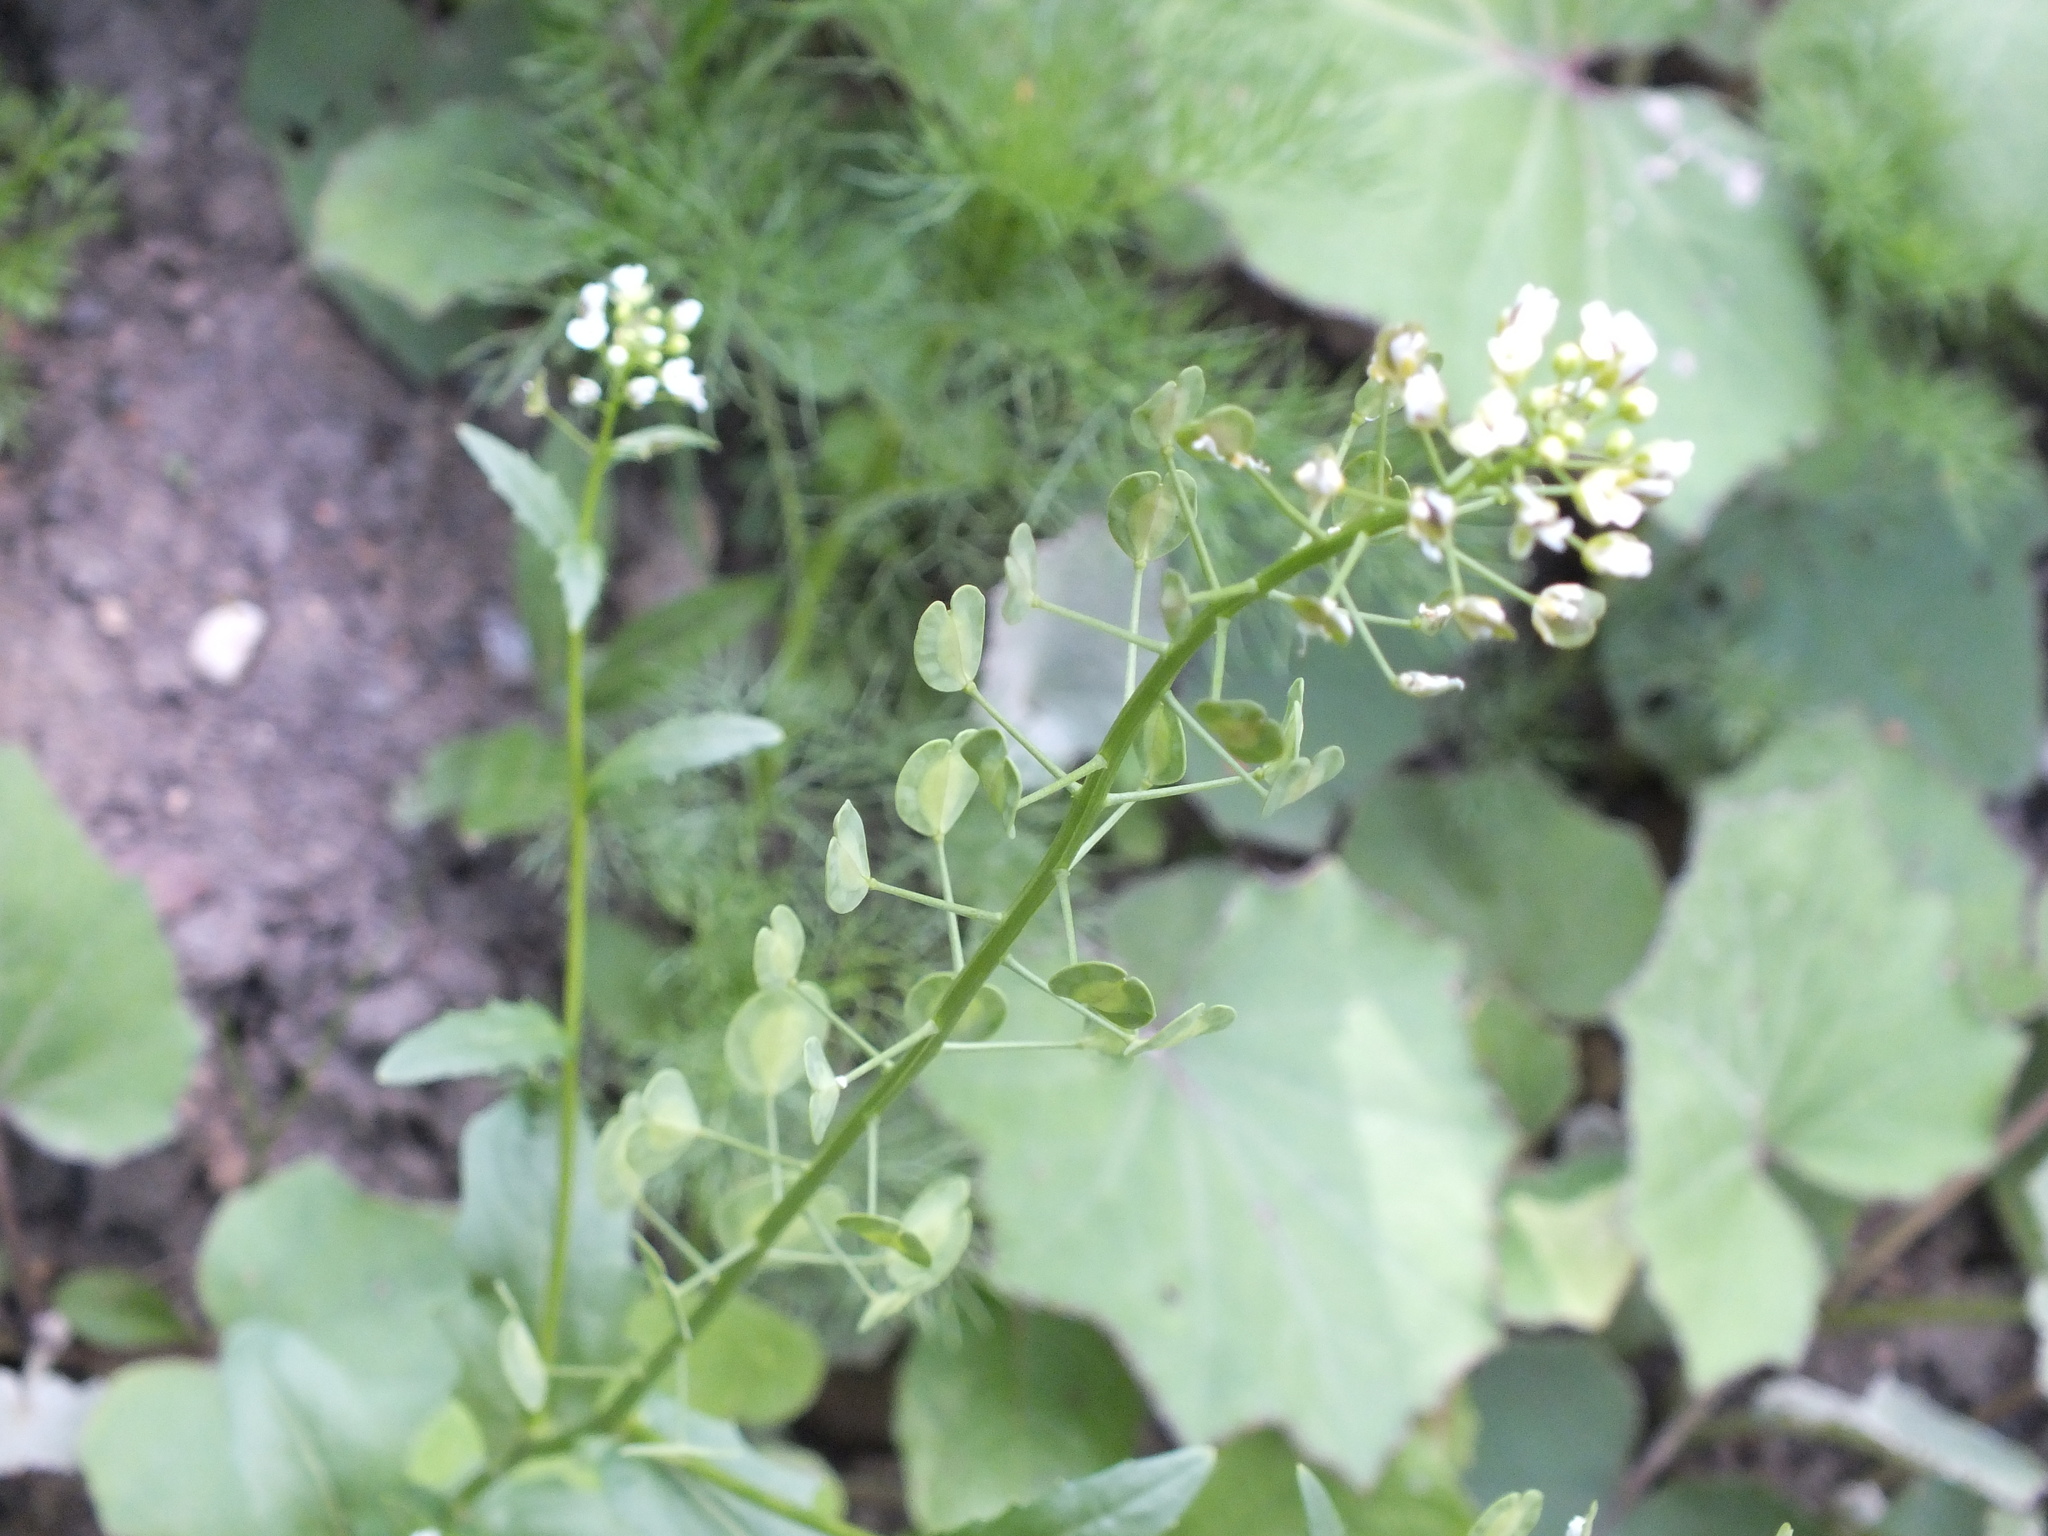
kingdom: Plantae
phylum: Tracheophyta
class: Magnoliopsida
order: Brassicales
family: Brassicaceae
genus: Thlaspi
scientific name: Thlaspi arvense
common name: Field pennycress
